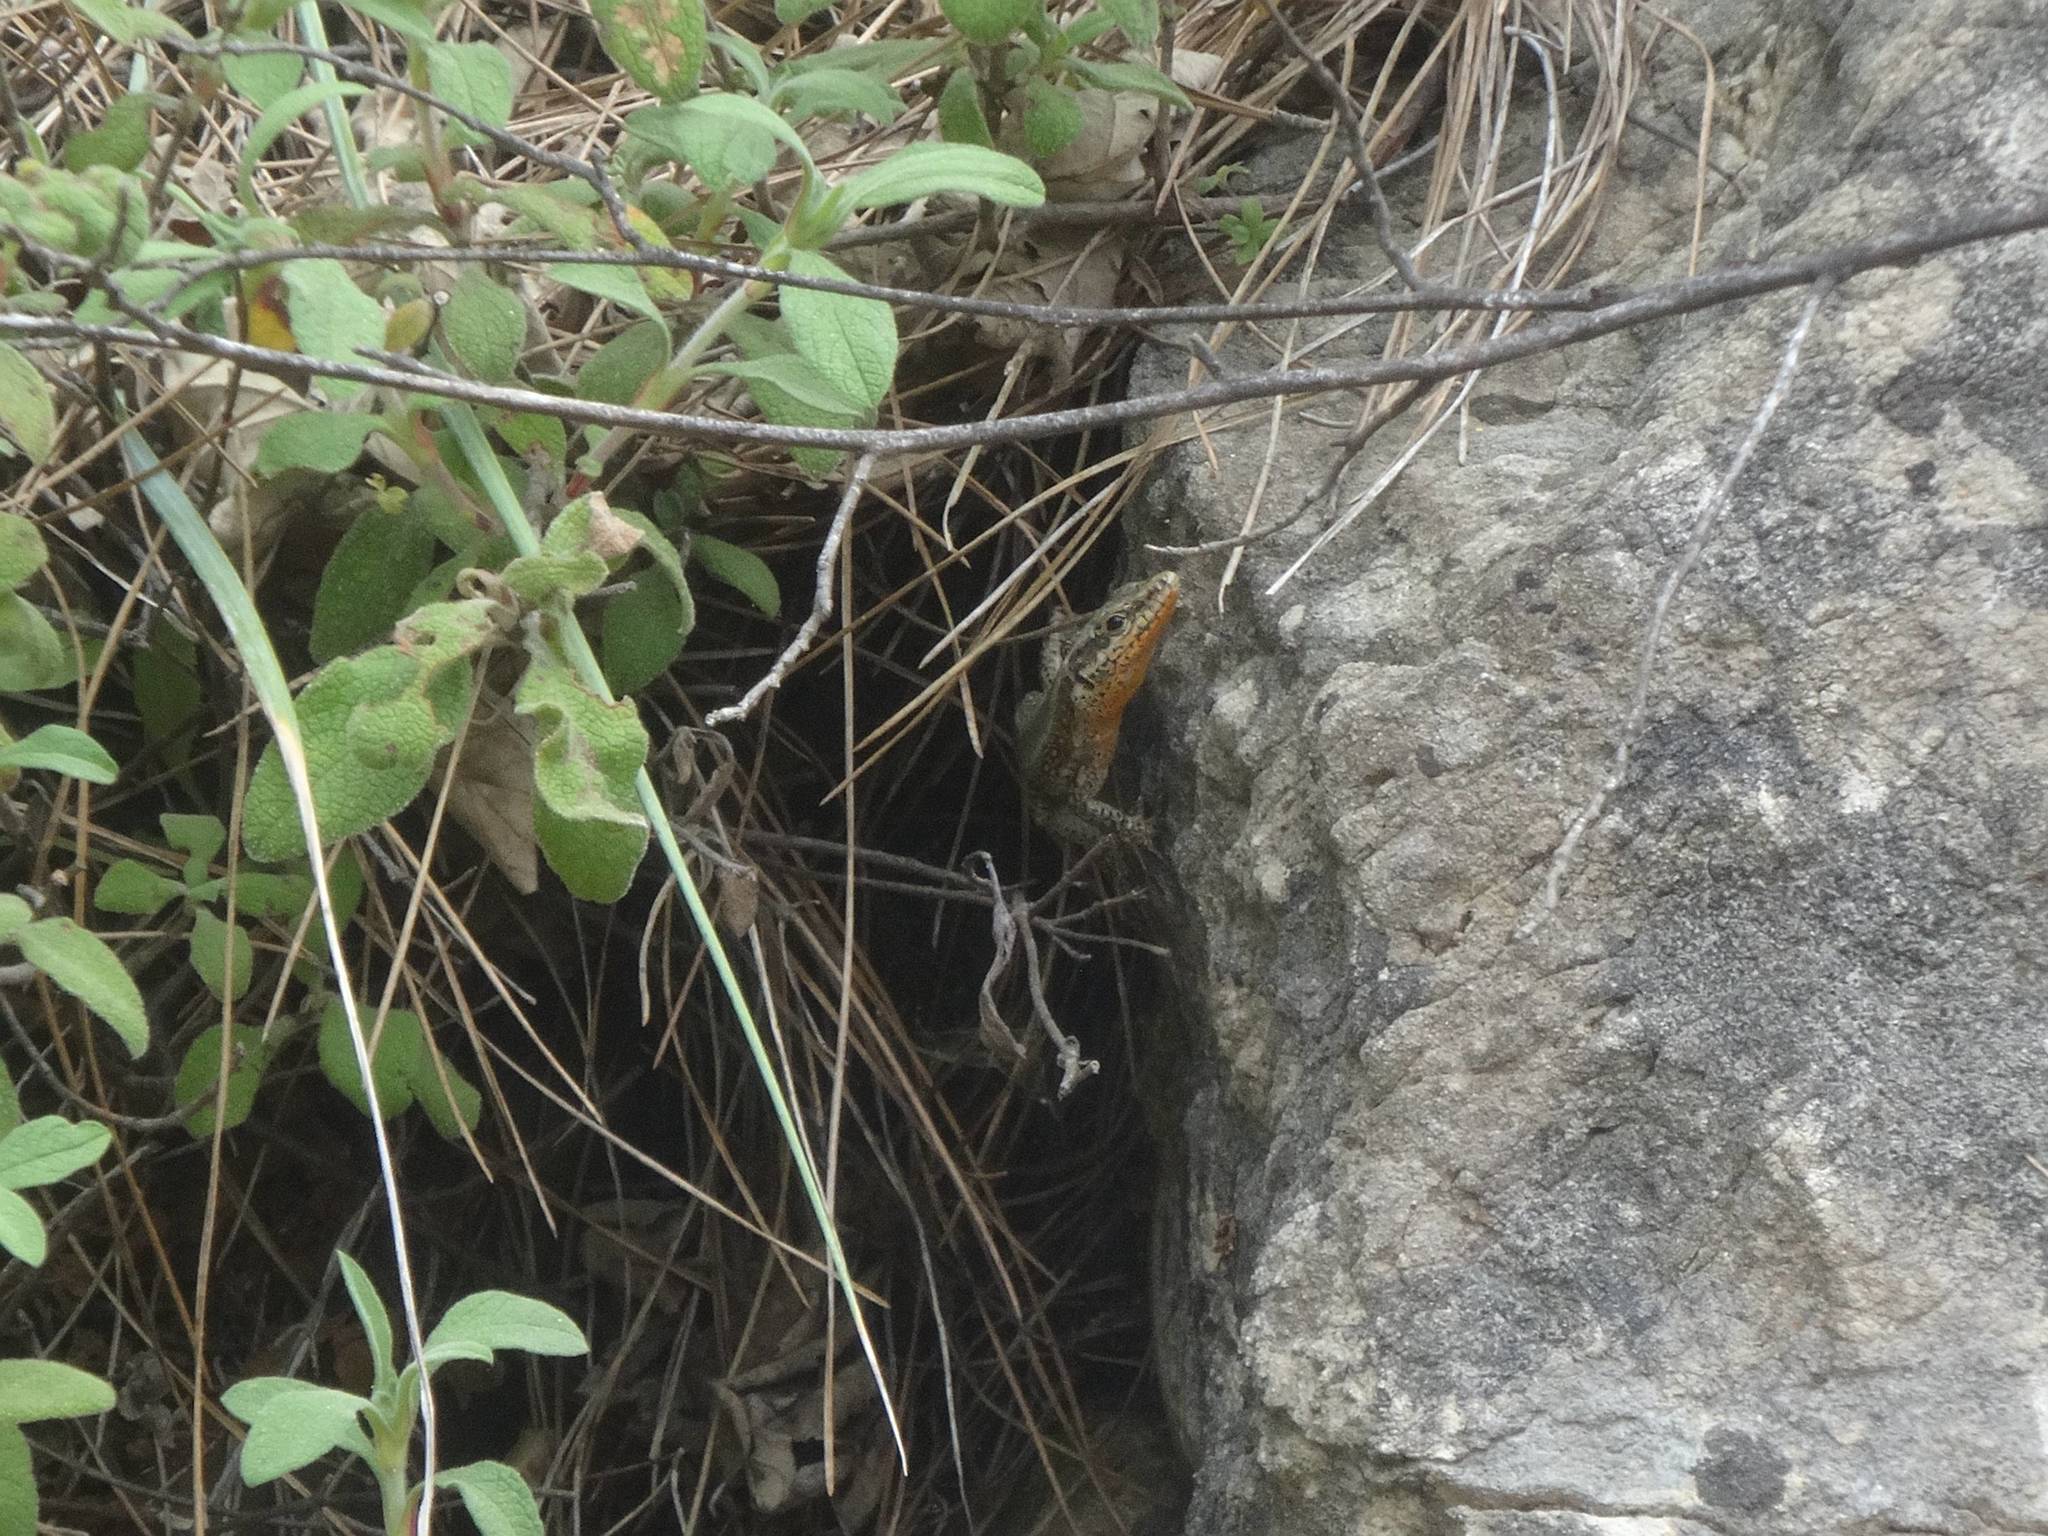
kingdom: Animalia
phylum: Chordata
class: Squamata
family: Lacertidae
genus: Anatololacerta
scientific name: Anatololacerta finikensis
